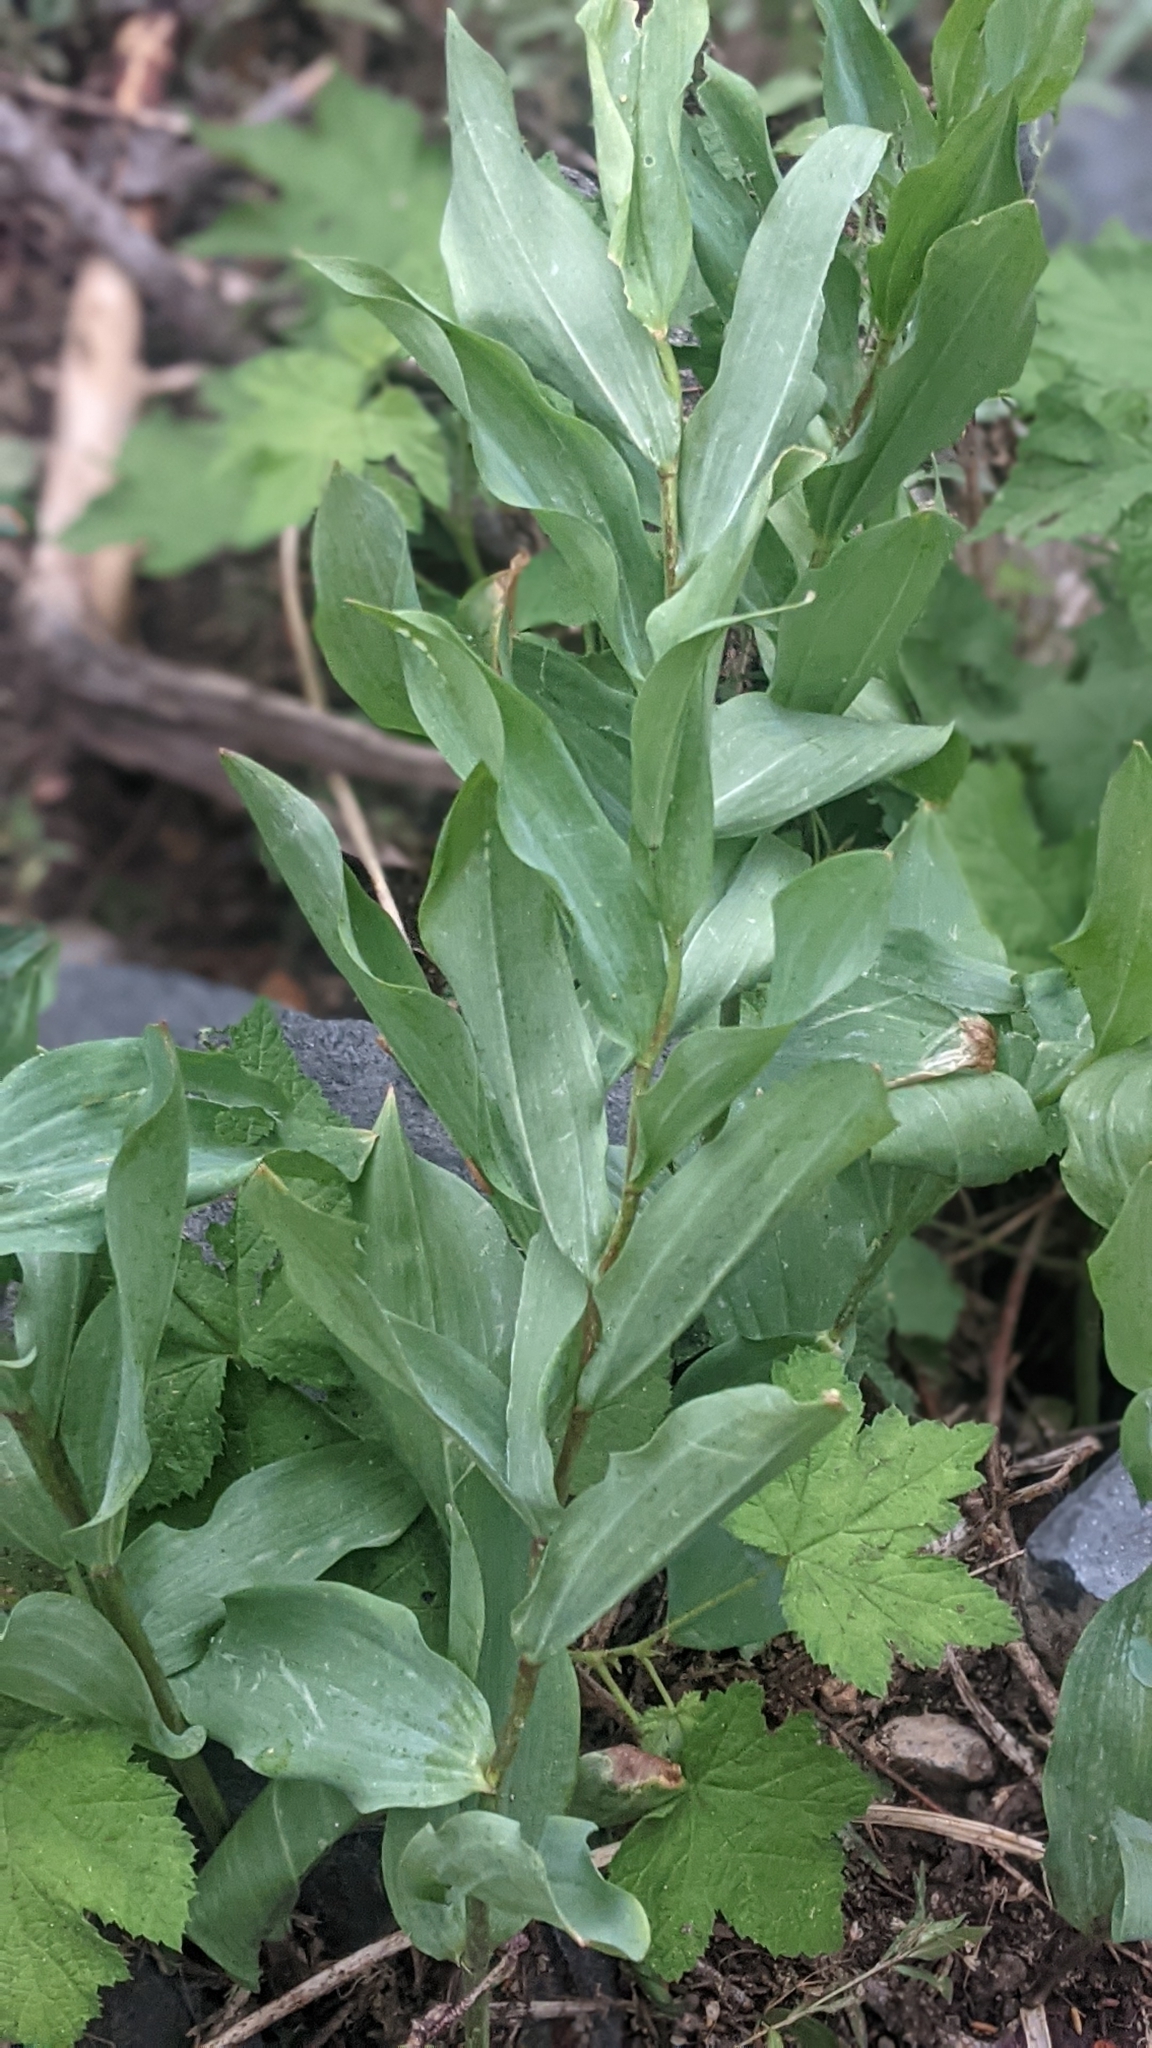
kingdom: Plantae
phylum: Tracheophyta
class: Liliopsida
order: Asparagales
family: Asparagaceae
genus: Maianthemum
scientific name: Maianthemum racemosum
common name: False spikenard
